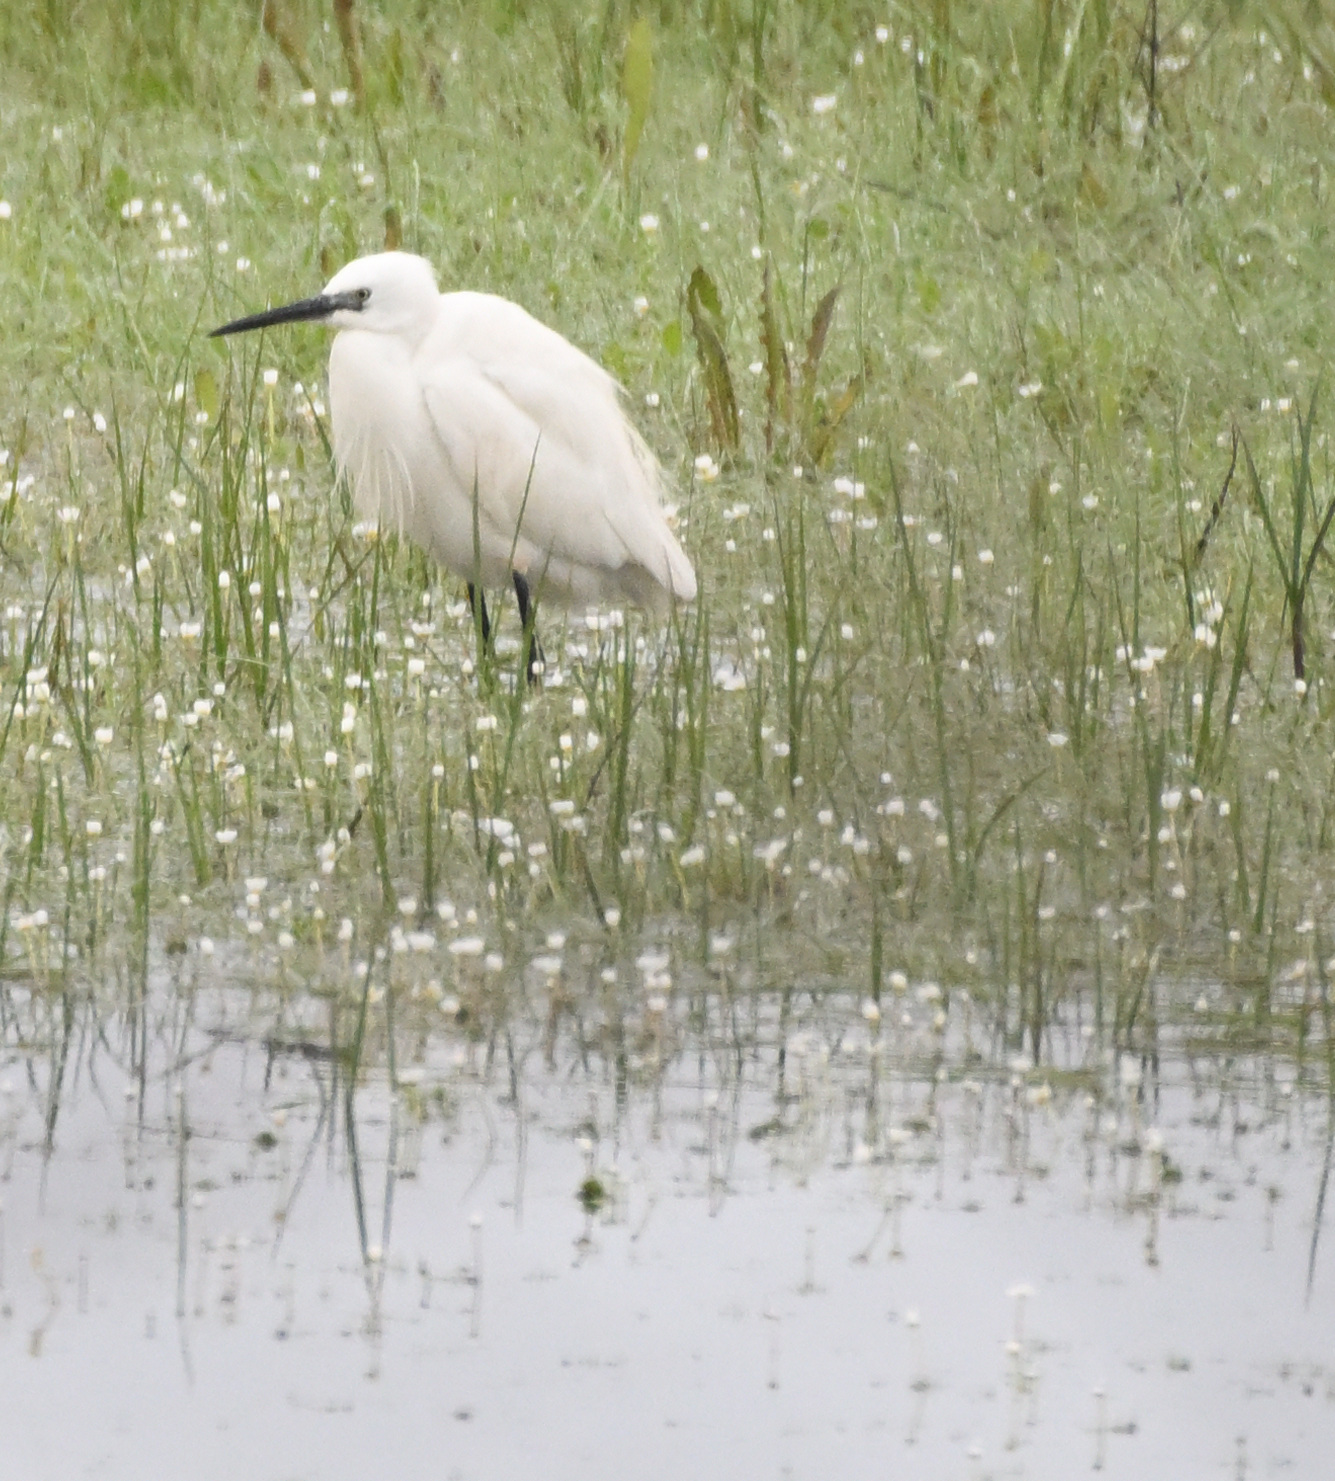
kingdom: Animalia
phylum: Chordata
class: Aves
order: Pelecaniformes
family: Ardeidae
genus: Egretta
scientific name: Egretta garzetta
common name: Little egret
